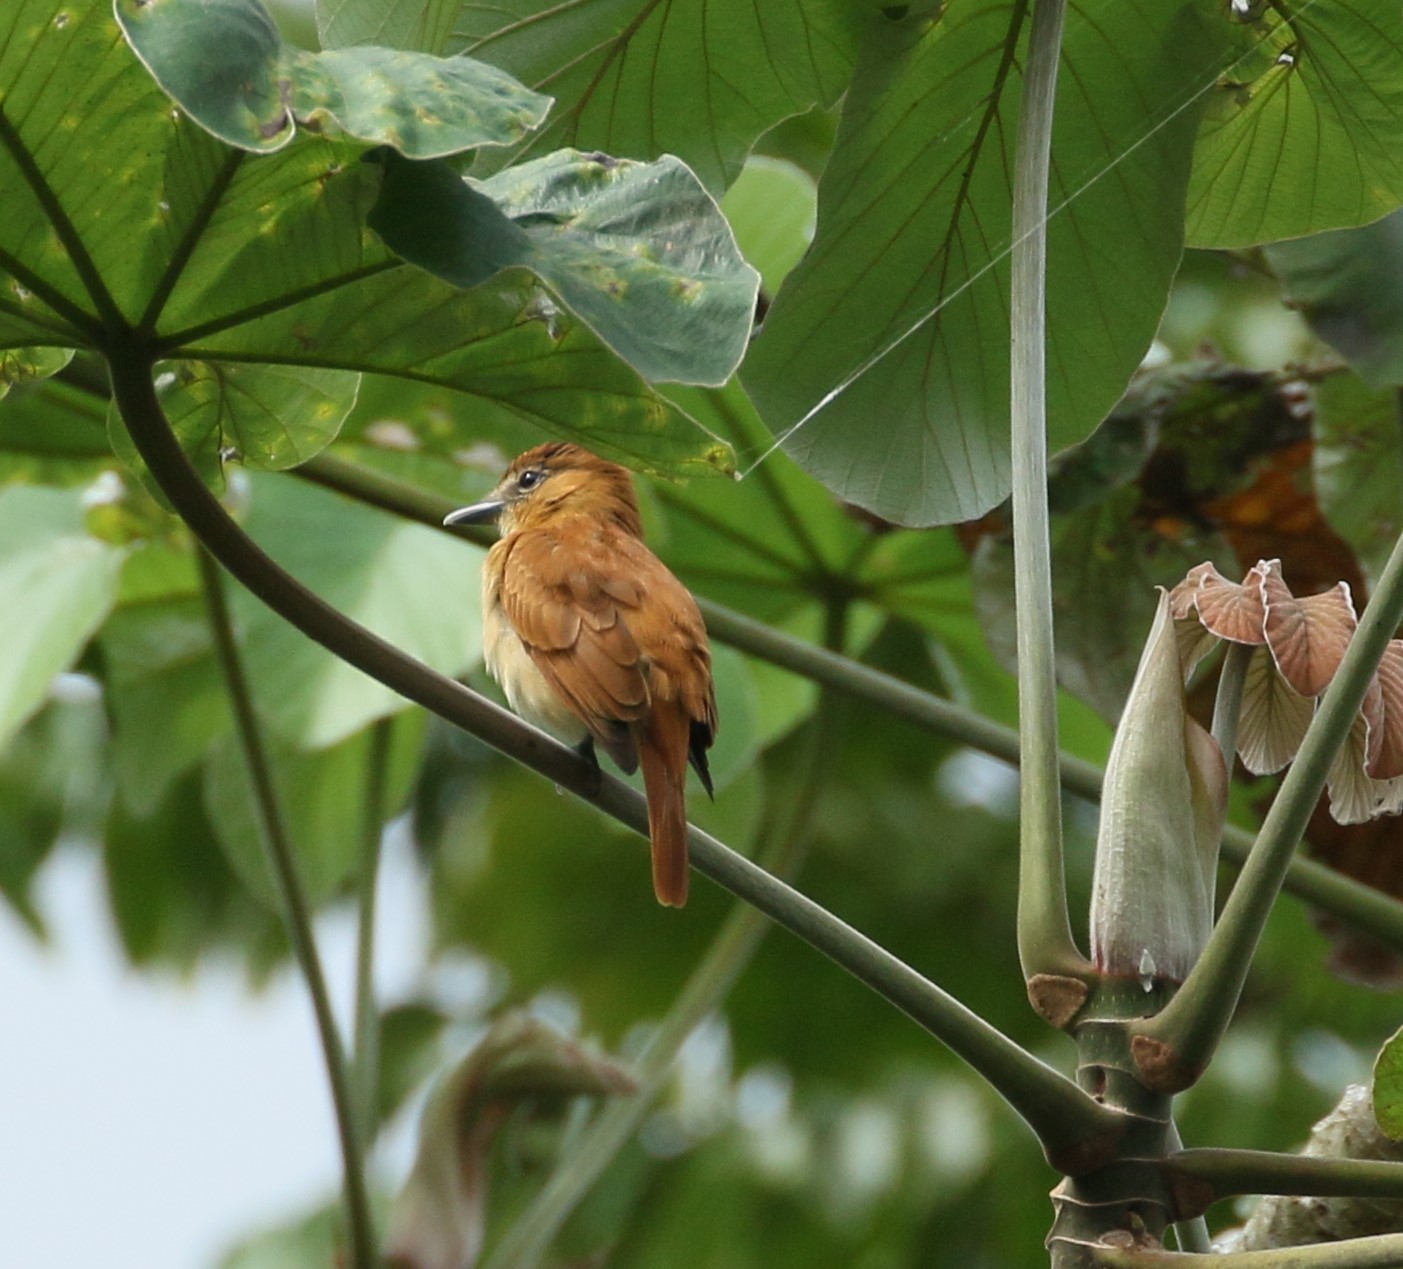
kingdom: Animalia
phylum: Chordata
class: Aves
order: Passeriformes
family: Cotingidae
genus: Pachyramphus
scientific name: Pachyramphus cinnamomeus
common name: Cinnamon becard
